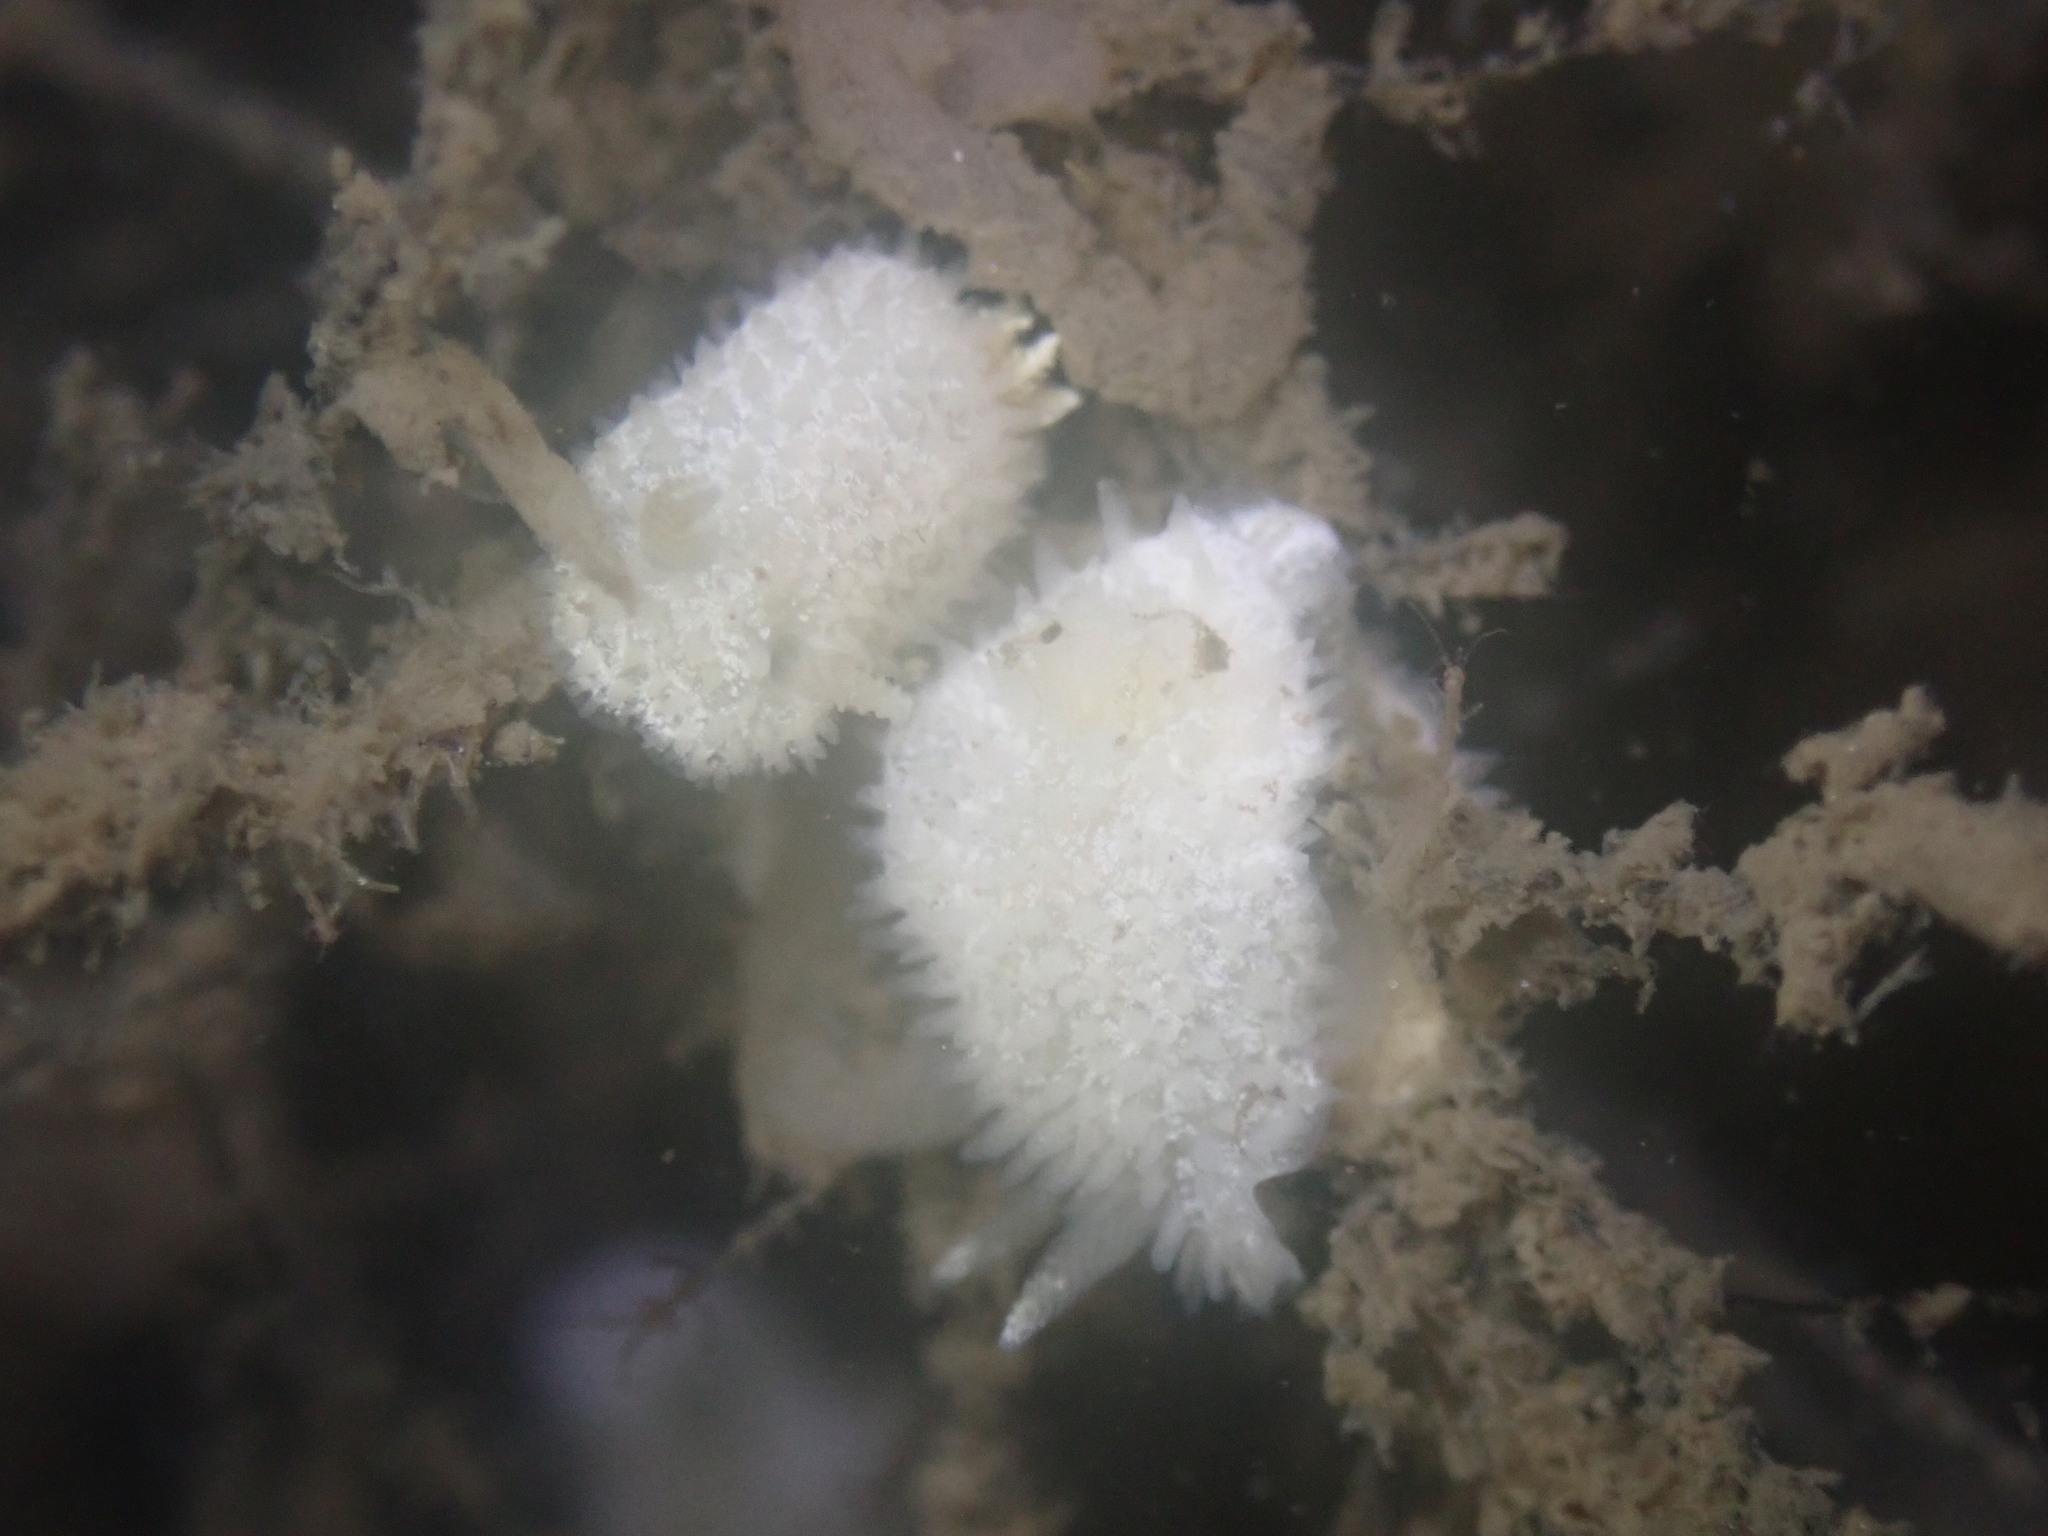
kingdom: Animalia
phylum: Mollusca
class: Gastropoda
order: Nudibranchia
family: Calycidorididae
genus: Diaphorodoris
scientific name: Diaphorodoris lirulatocauda
